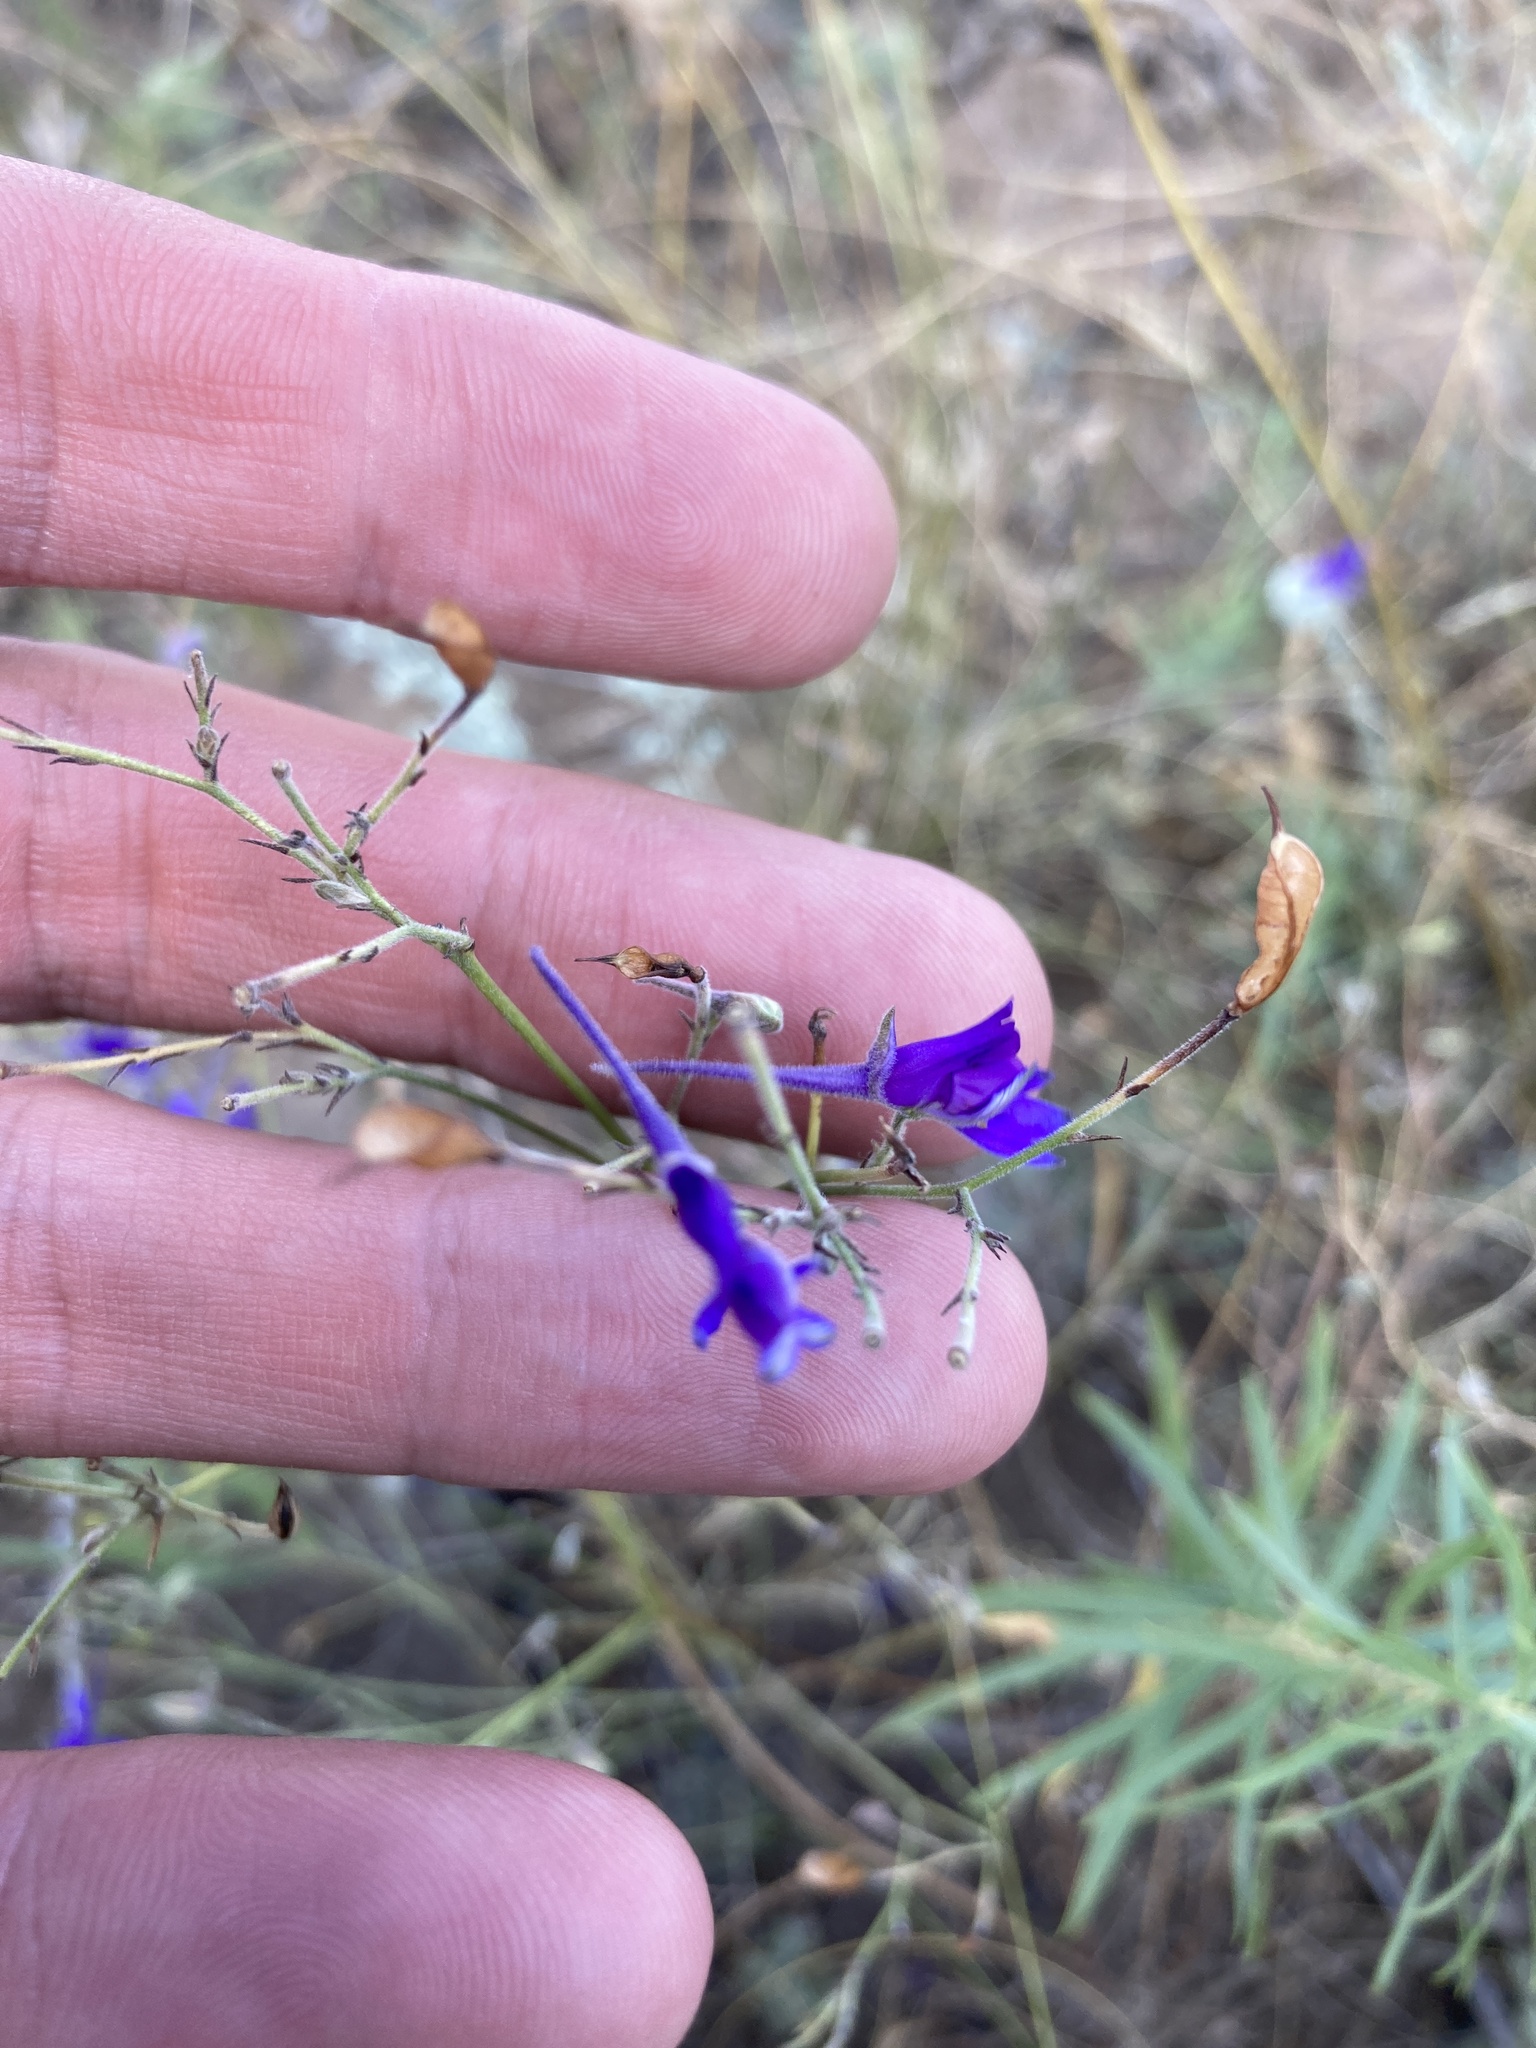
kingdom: Plantae
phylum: Tracheophyta
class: Magnoliopsida
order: Ranunculales
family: Ranunculaceae
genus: Delphinium
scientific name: Delphinium consolida
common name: Branching larkspur
